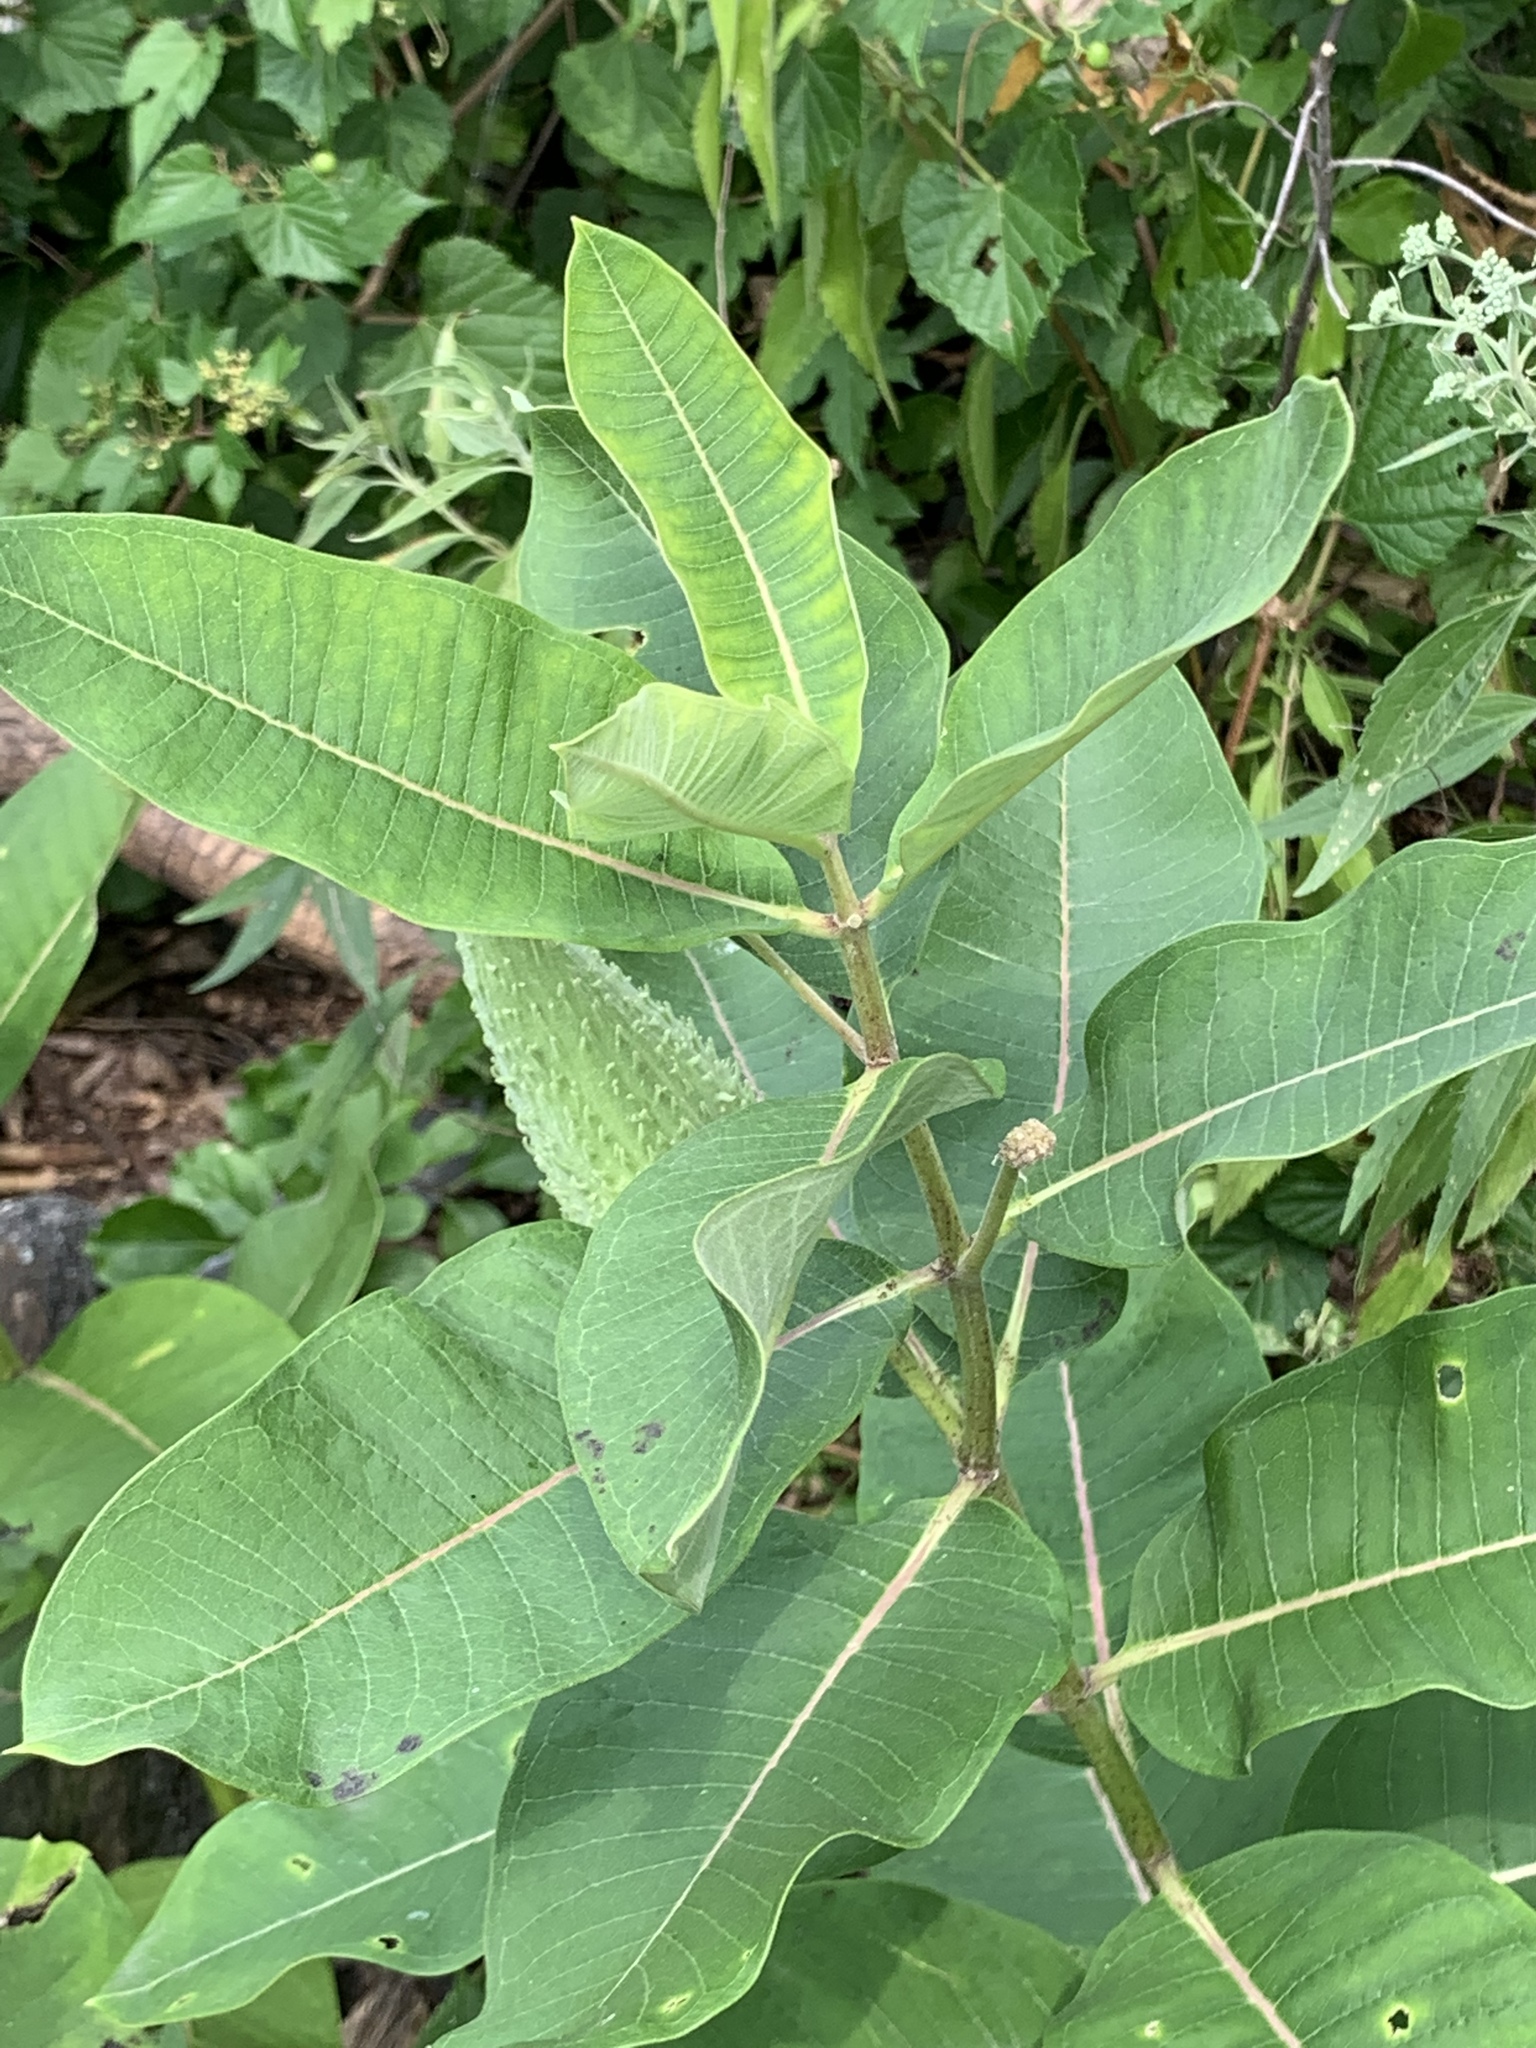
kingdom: Plantae
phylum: Tracheophyta
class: Magnoliopsida
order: Gentianales
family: Apocynaceae
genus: Asclepias
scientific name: Asclepias syriaca
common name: Common milkweed
